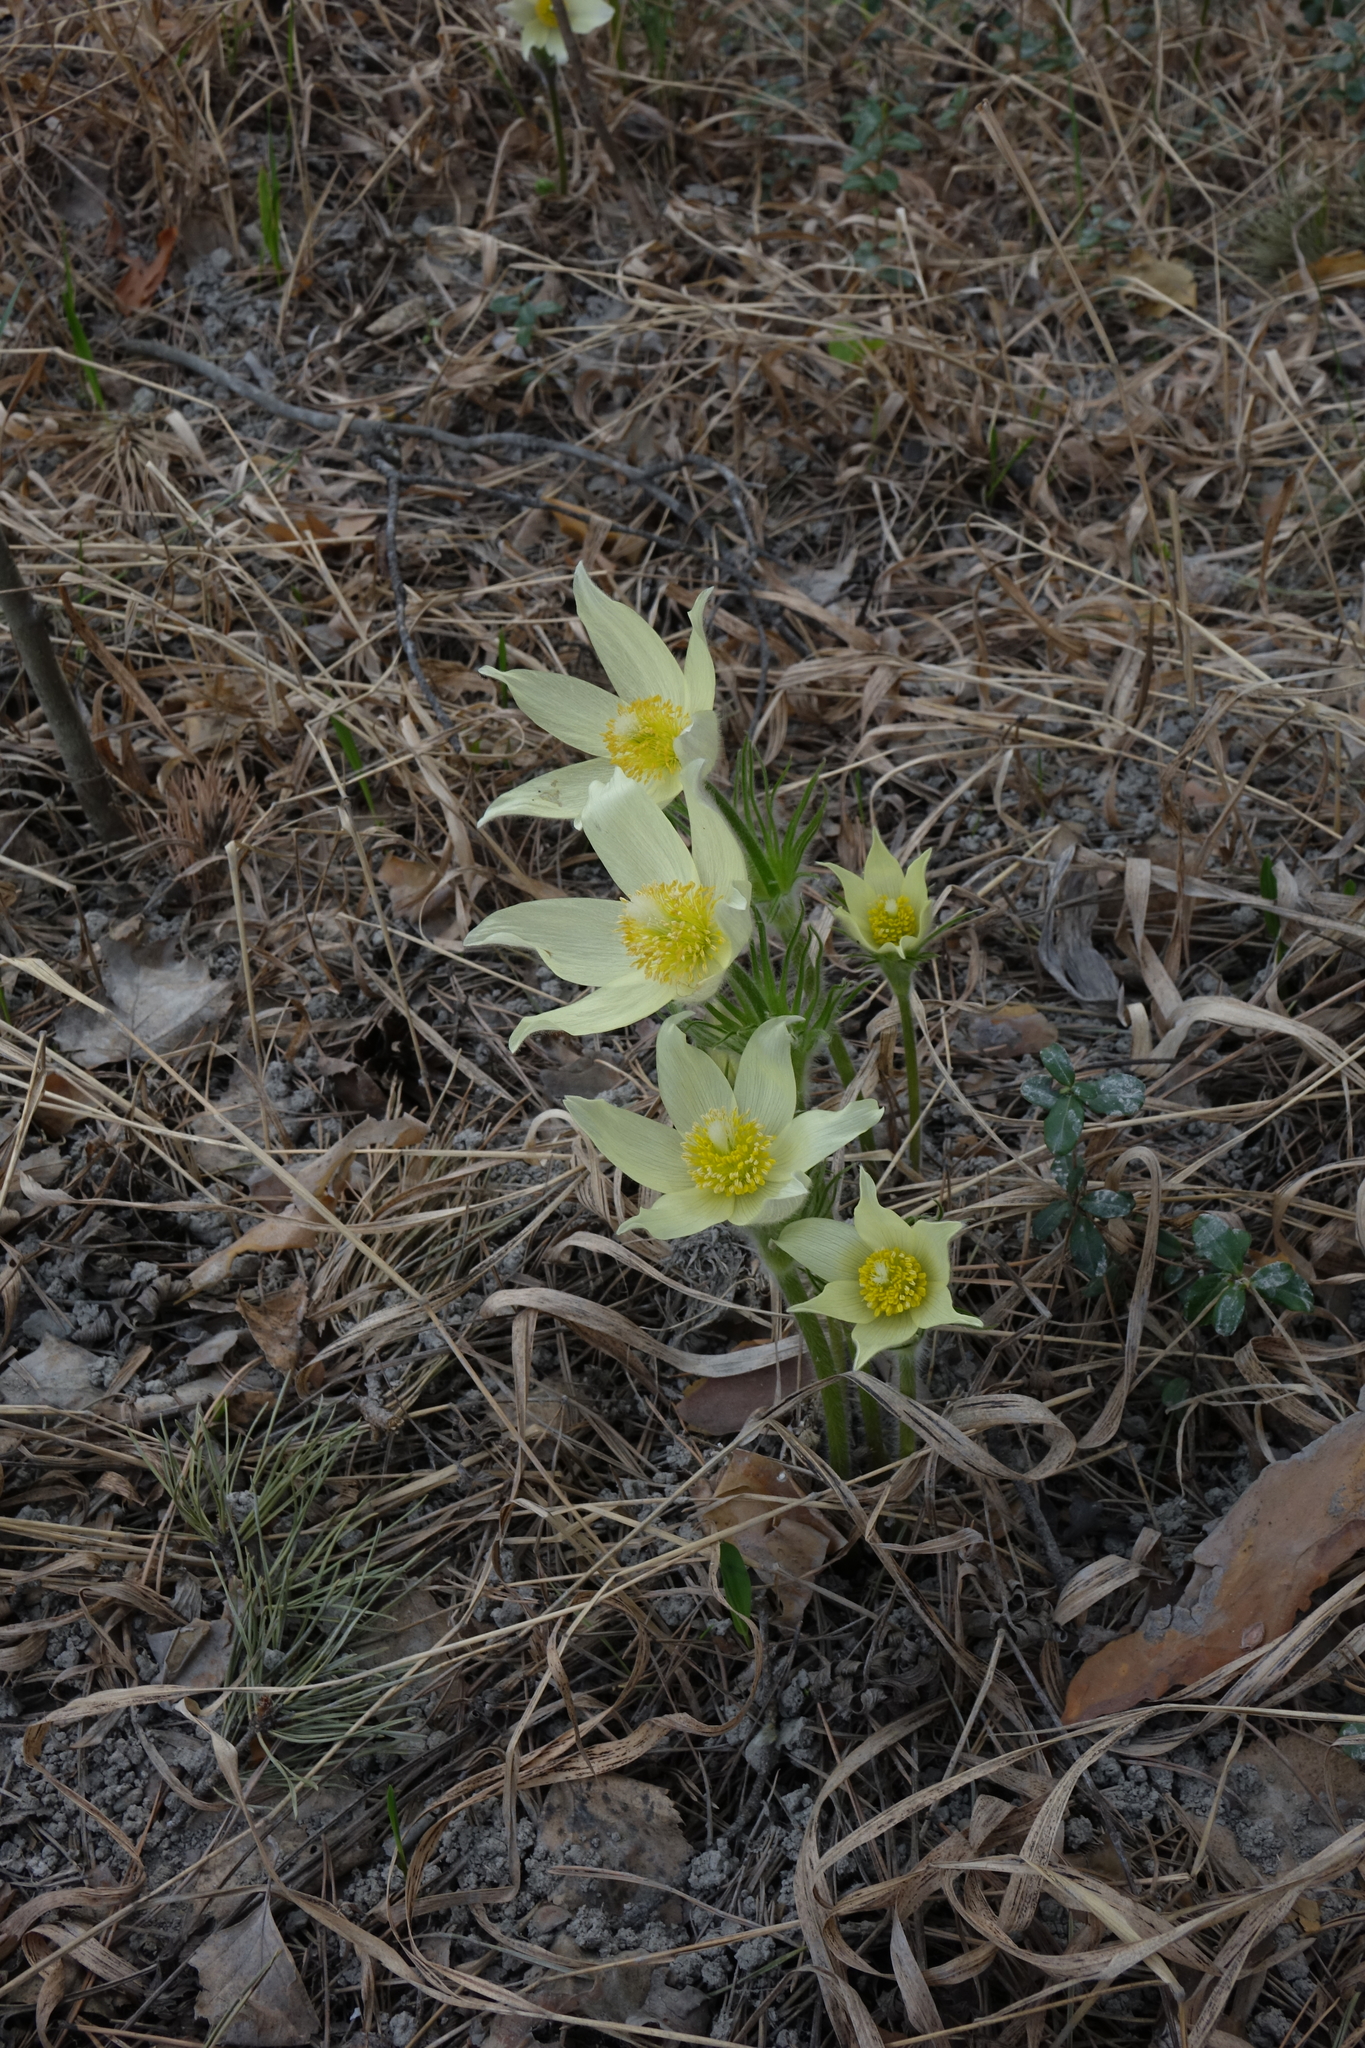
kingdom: Plantae
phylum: Tracheophyta
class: Magnoliopsida
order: Ranunculales
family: Ranunculaceae
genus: Pulsatilla
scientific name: Pulsatilla patens
